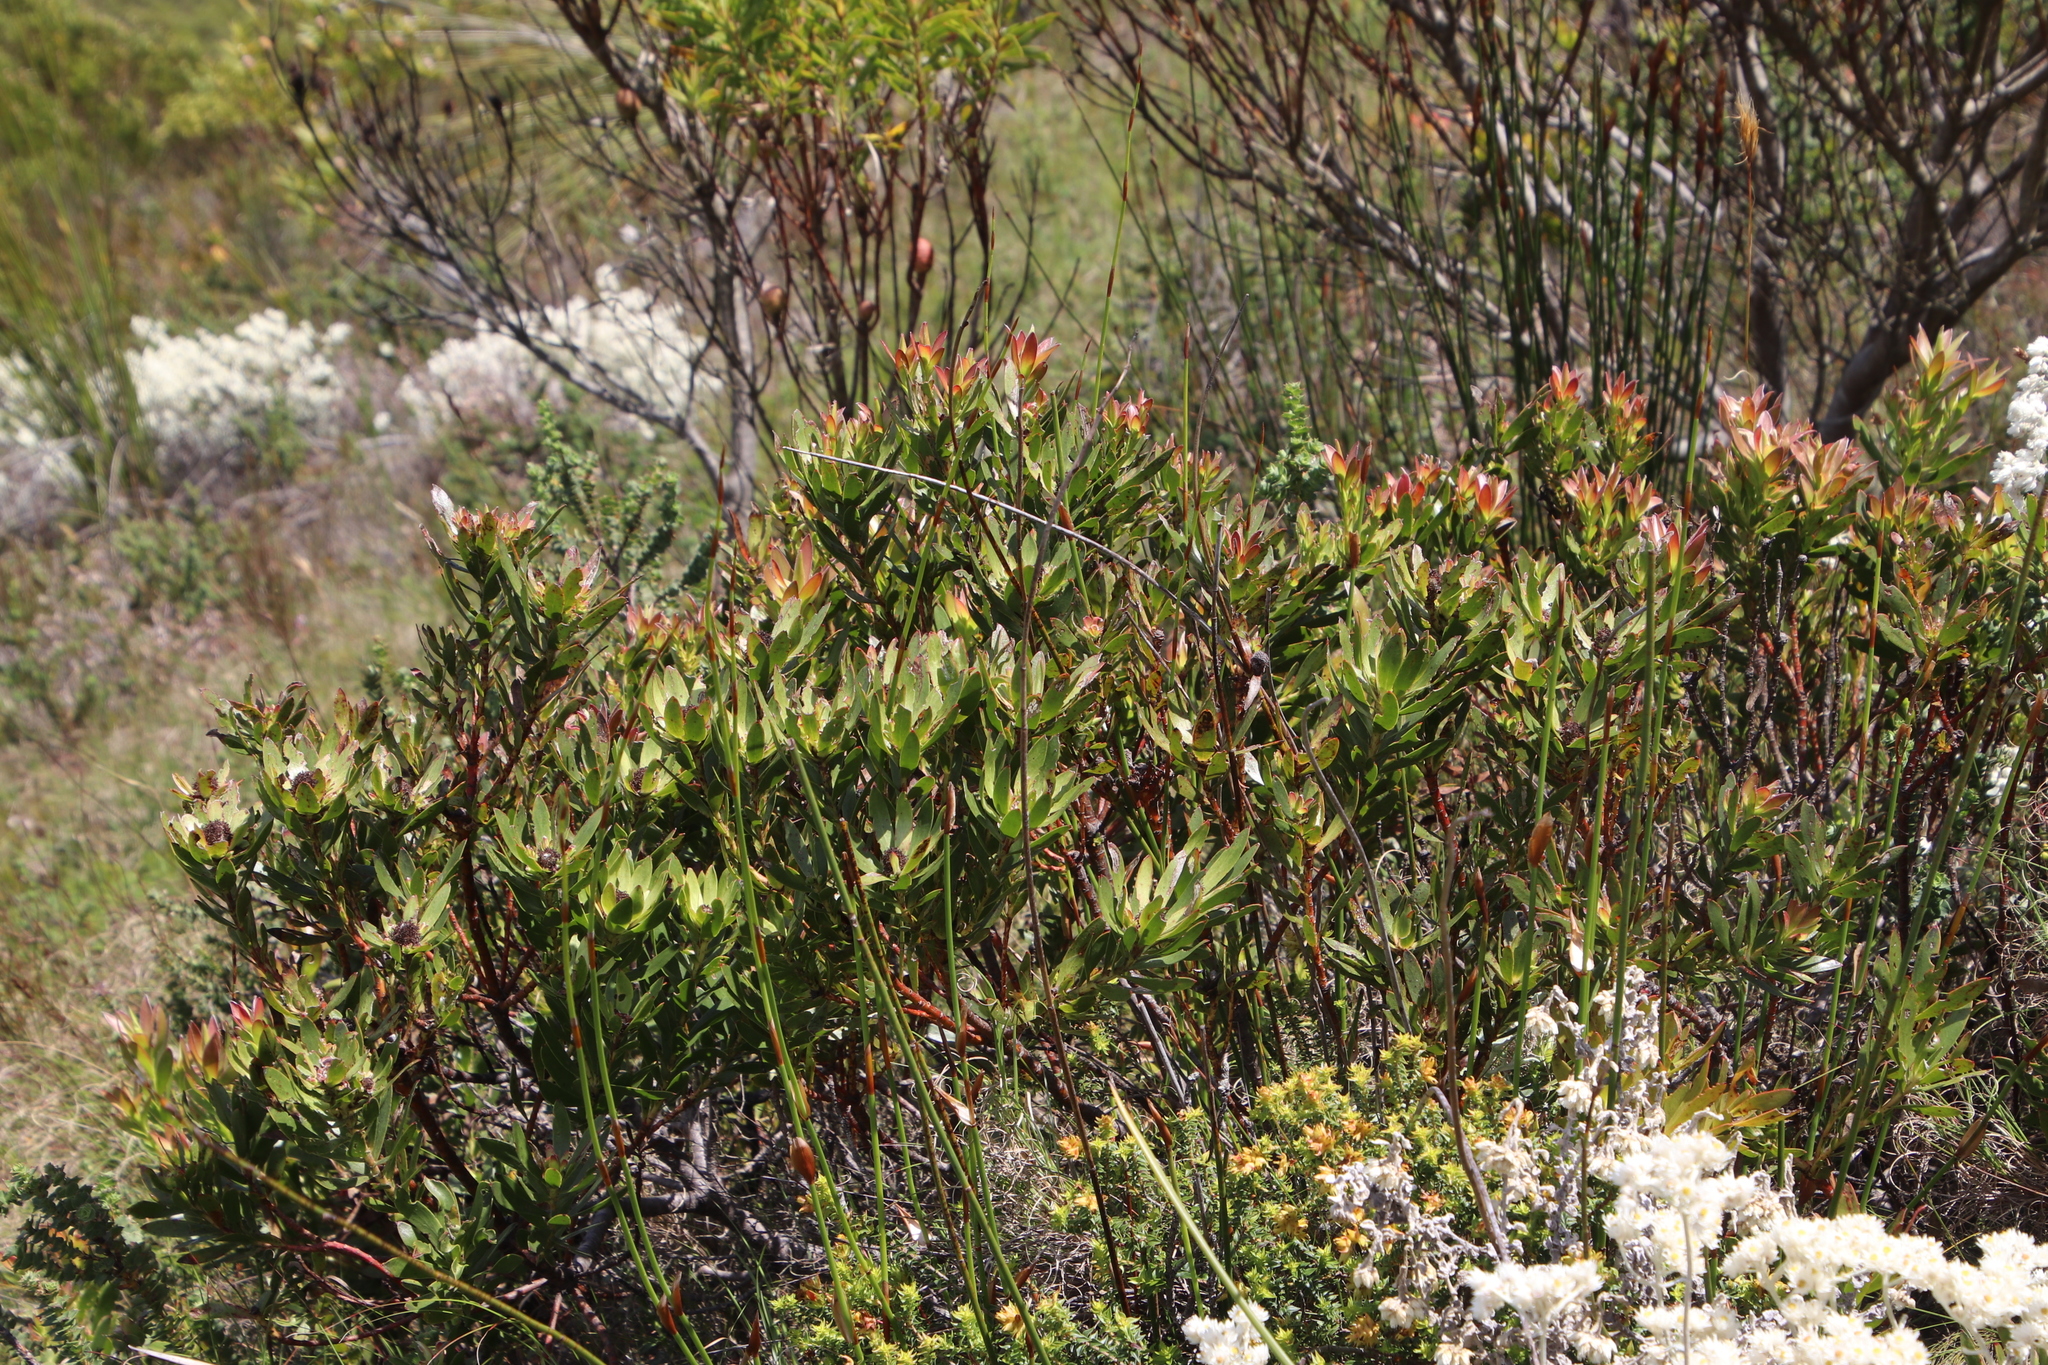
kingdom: Plantae
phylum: Tracheophyta
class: Magnoliopsida
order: Proteales
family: Proteaceae
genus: Leucadendron
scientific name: Leucadendron spissifolium
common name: Spear-leaf conebush
